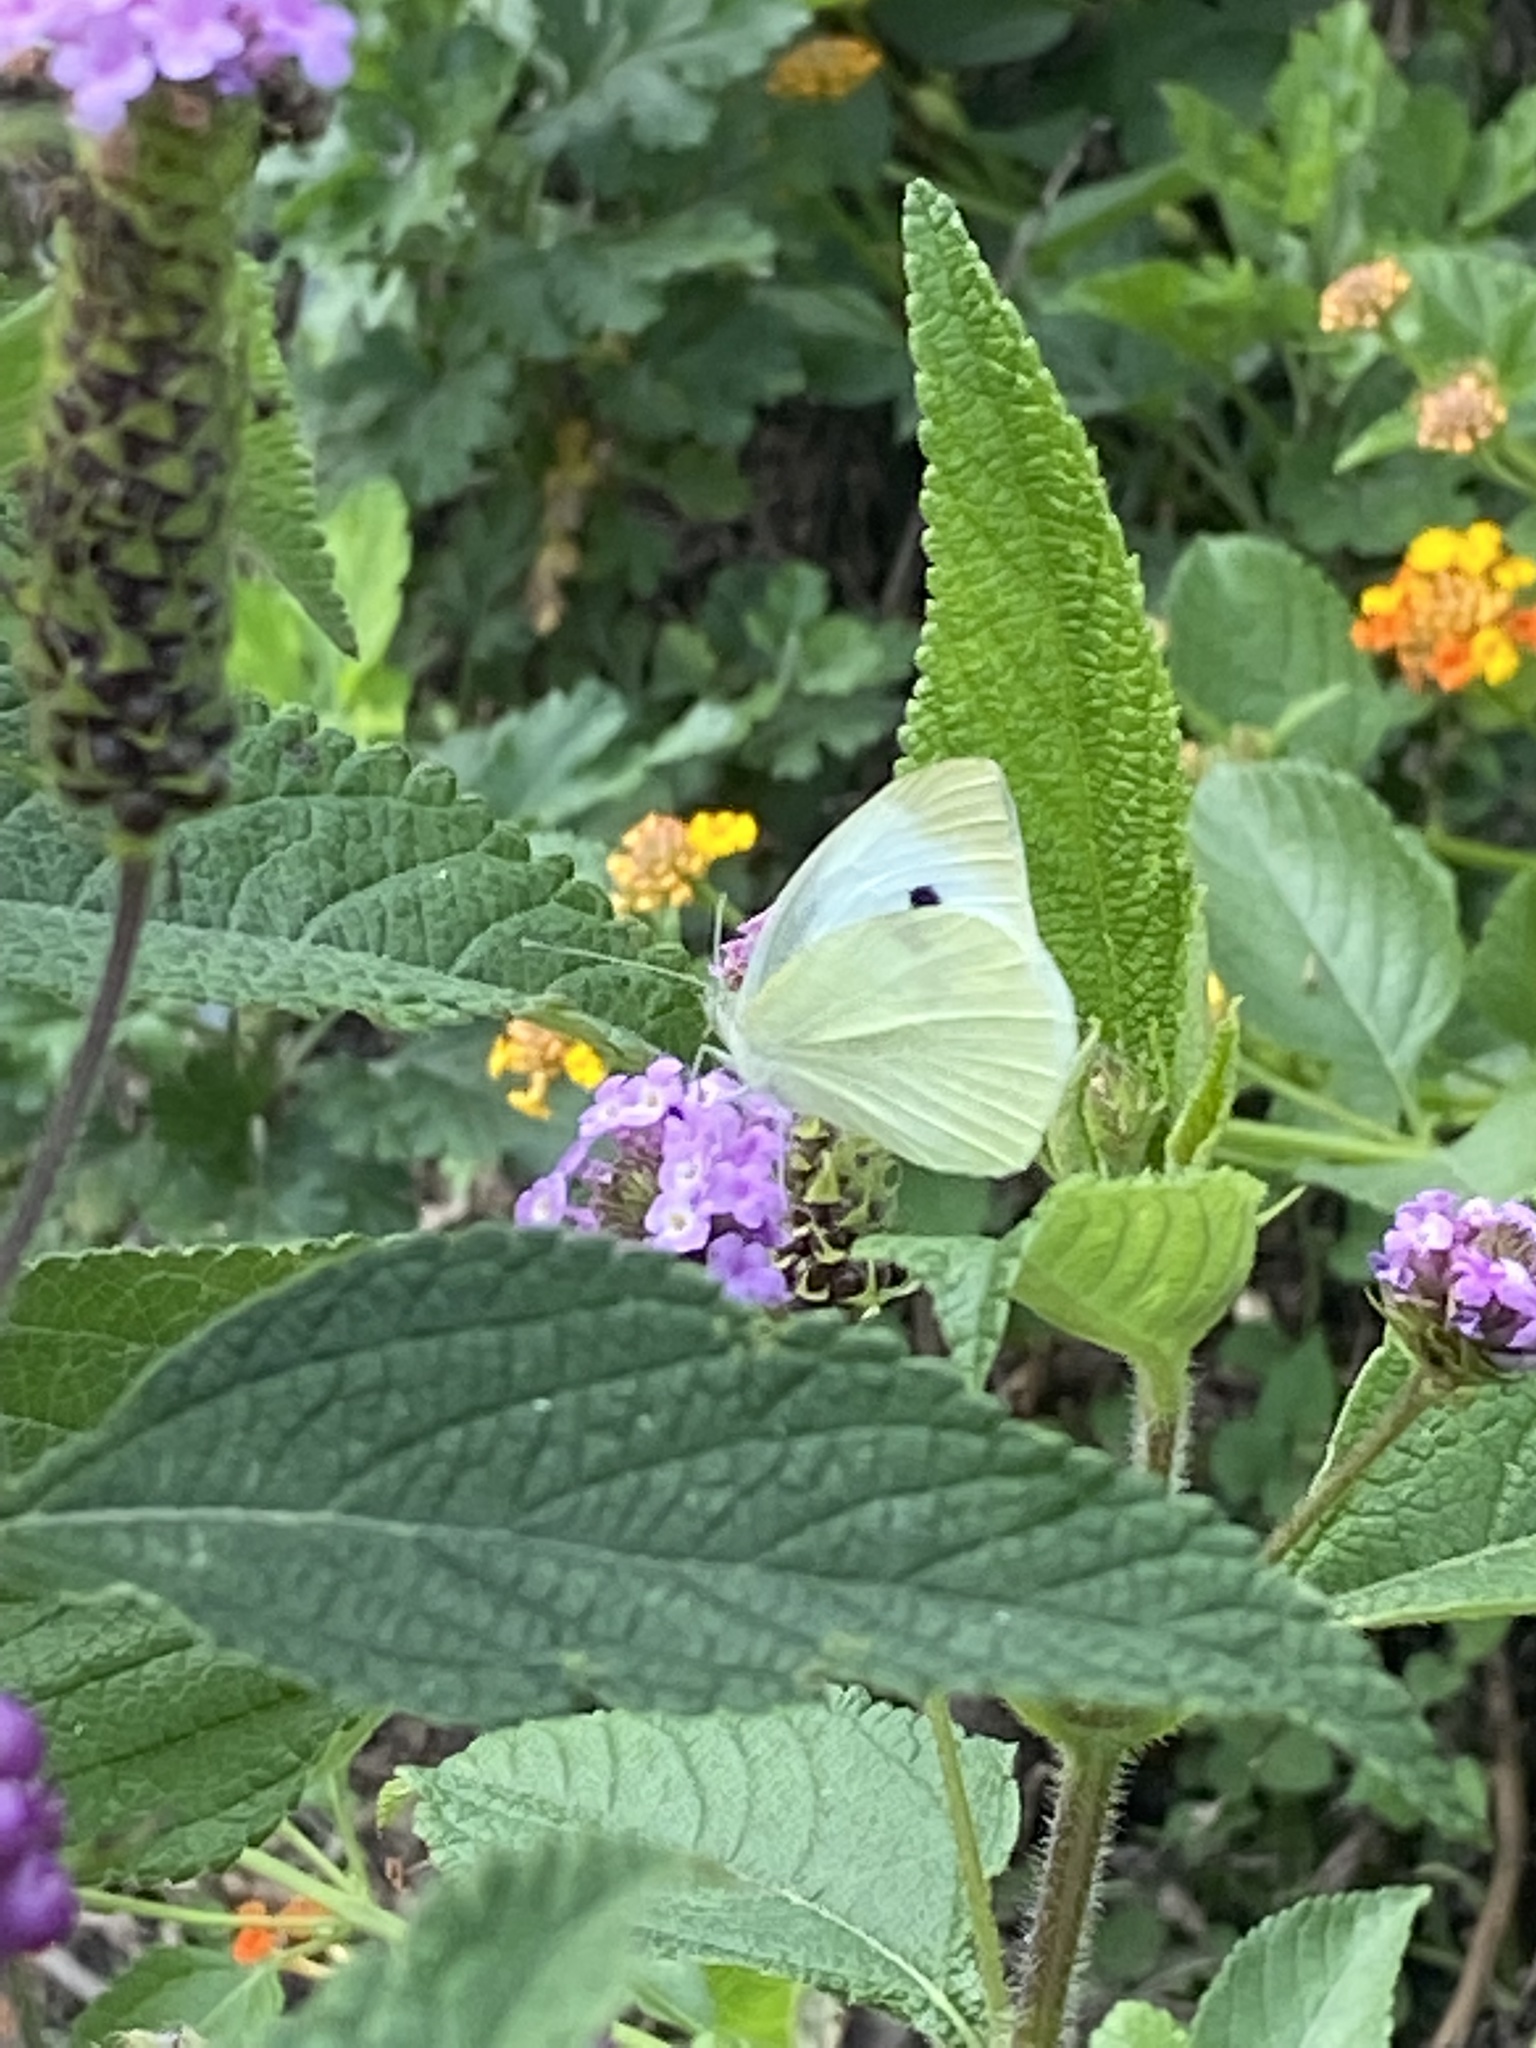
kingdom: Animalia
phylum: Arthropoda
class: Insecta
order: Lepidoptera
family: Pieridae
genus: Pieris
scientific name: Pieris rapae
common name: Small white
